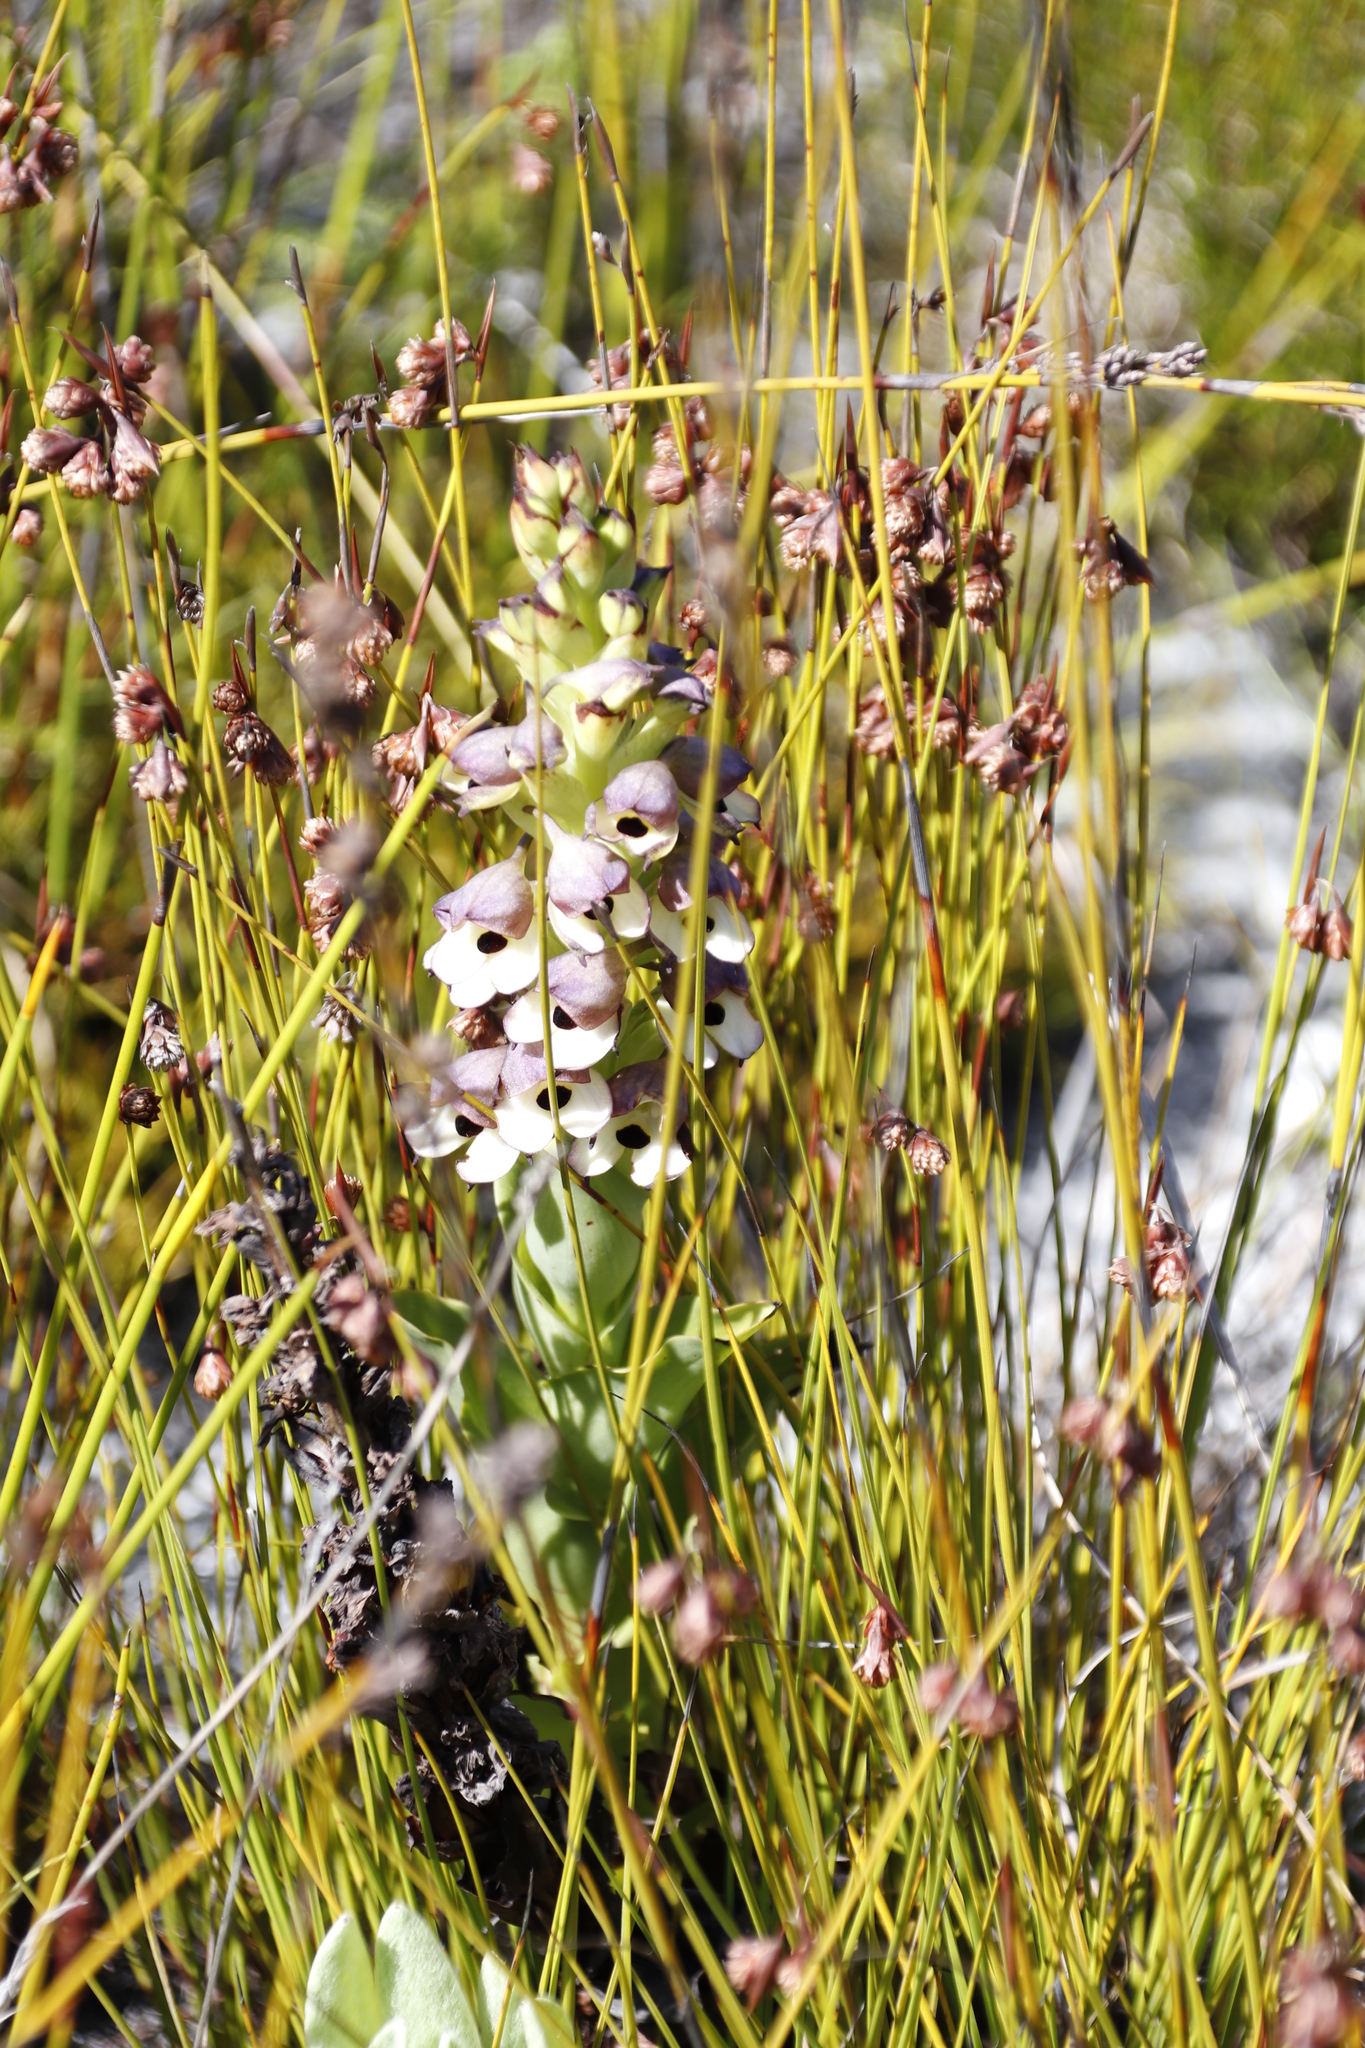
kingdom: Plantae
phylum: Tracheophyta
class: Liliopsida
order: Asparagales
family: Orchidaceae
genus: Disa
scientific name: Disa cornuta
